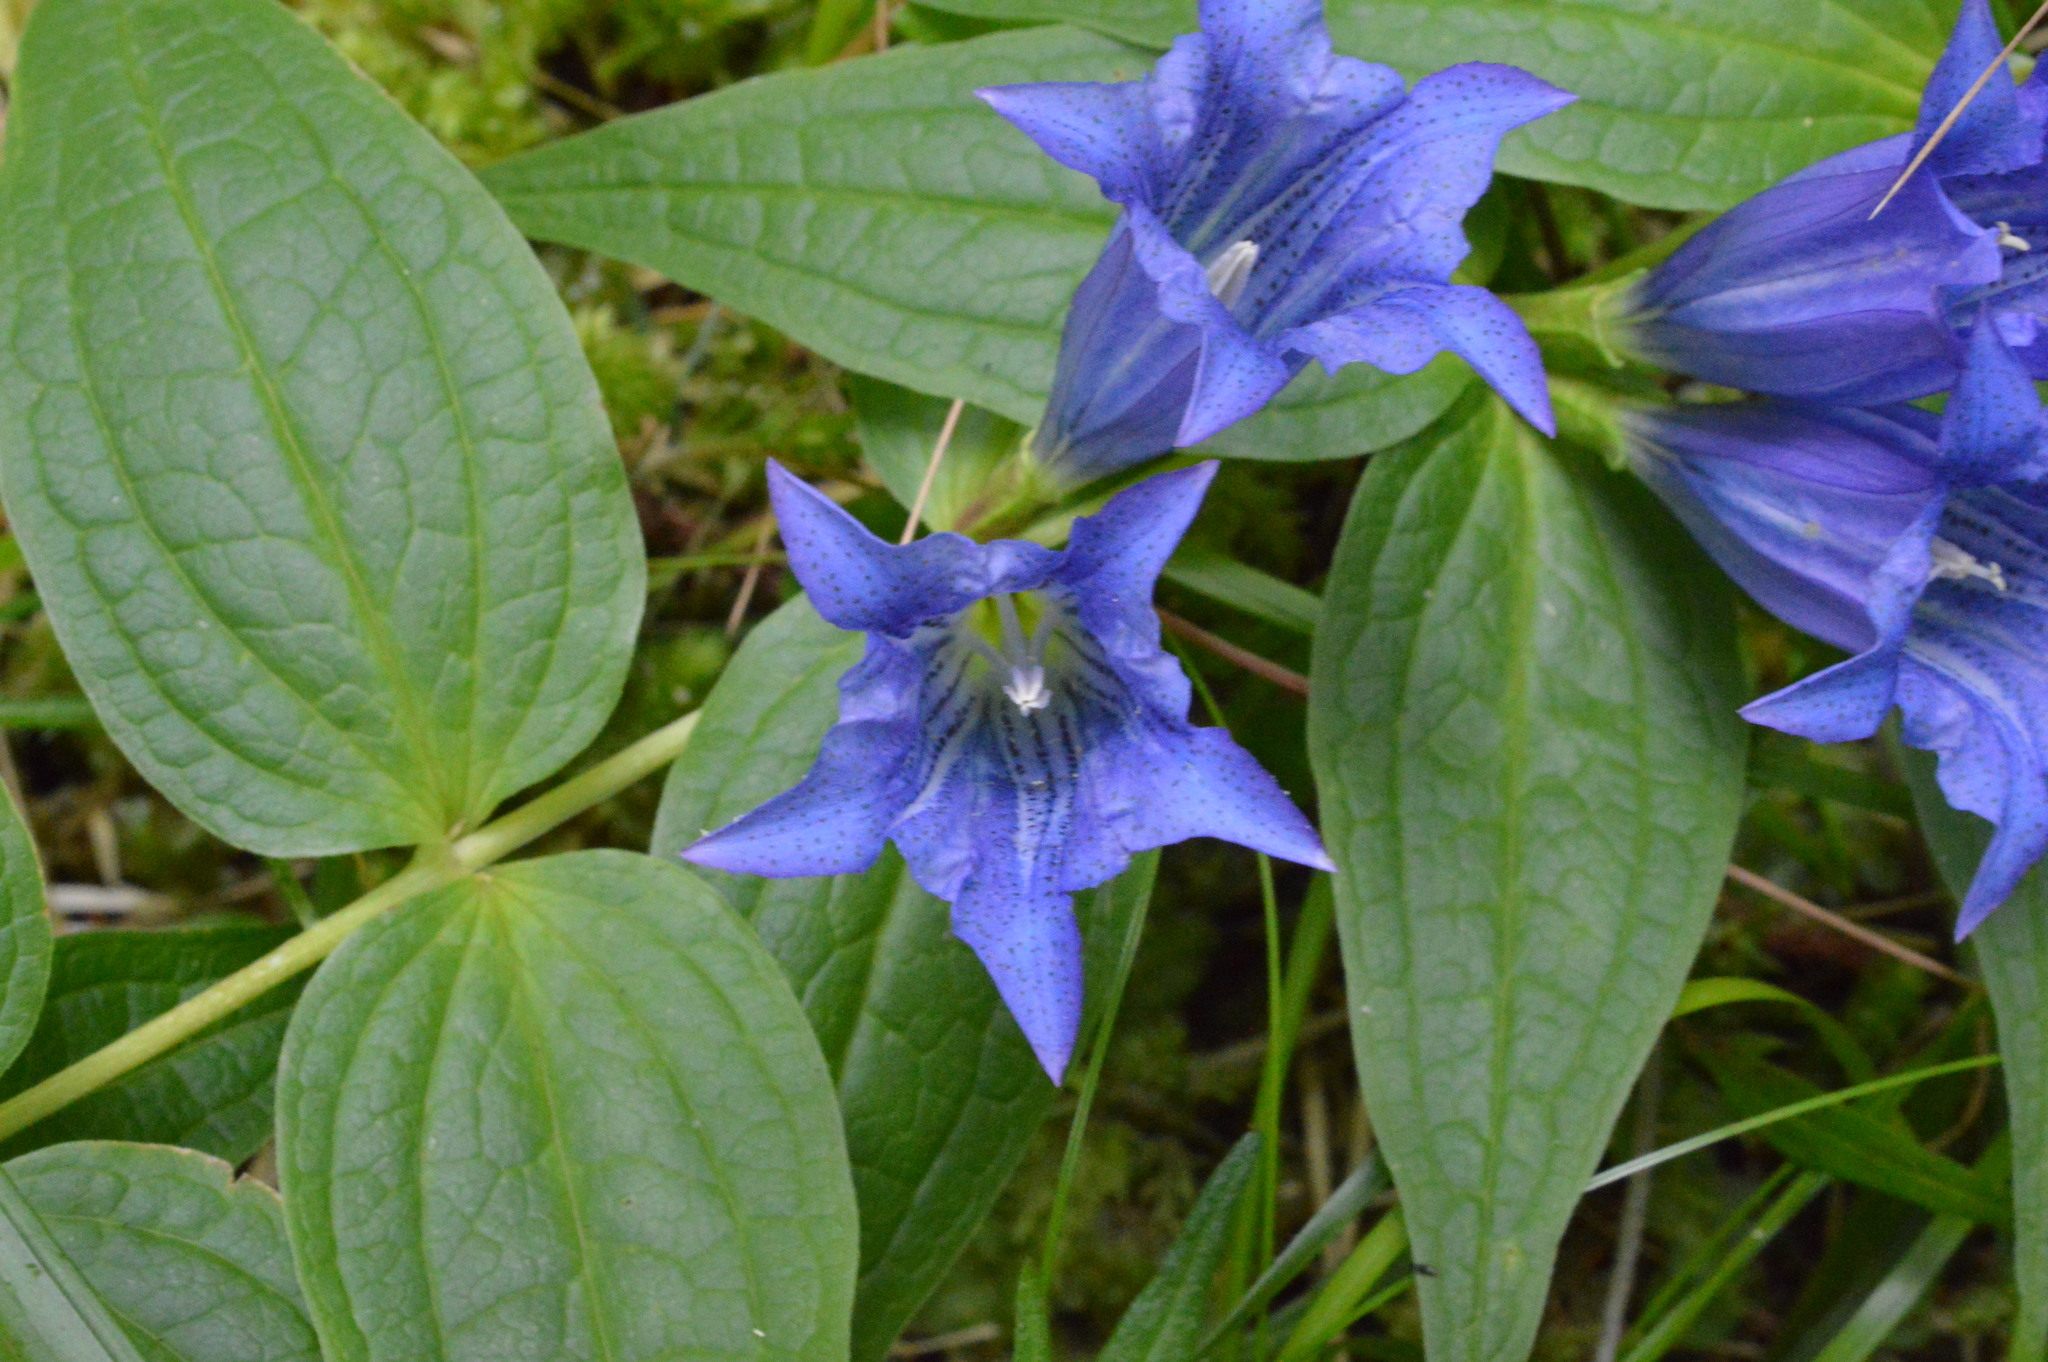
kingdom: Plantae
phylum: Tracheophyta
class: Magnoliopsida
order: Gentianales
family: Gentianaceae
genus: Gentiana
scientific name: Gentiana asclepiadea
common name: Willow gentian
